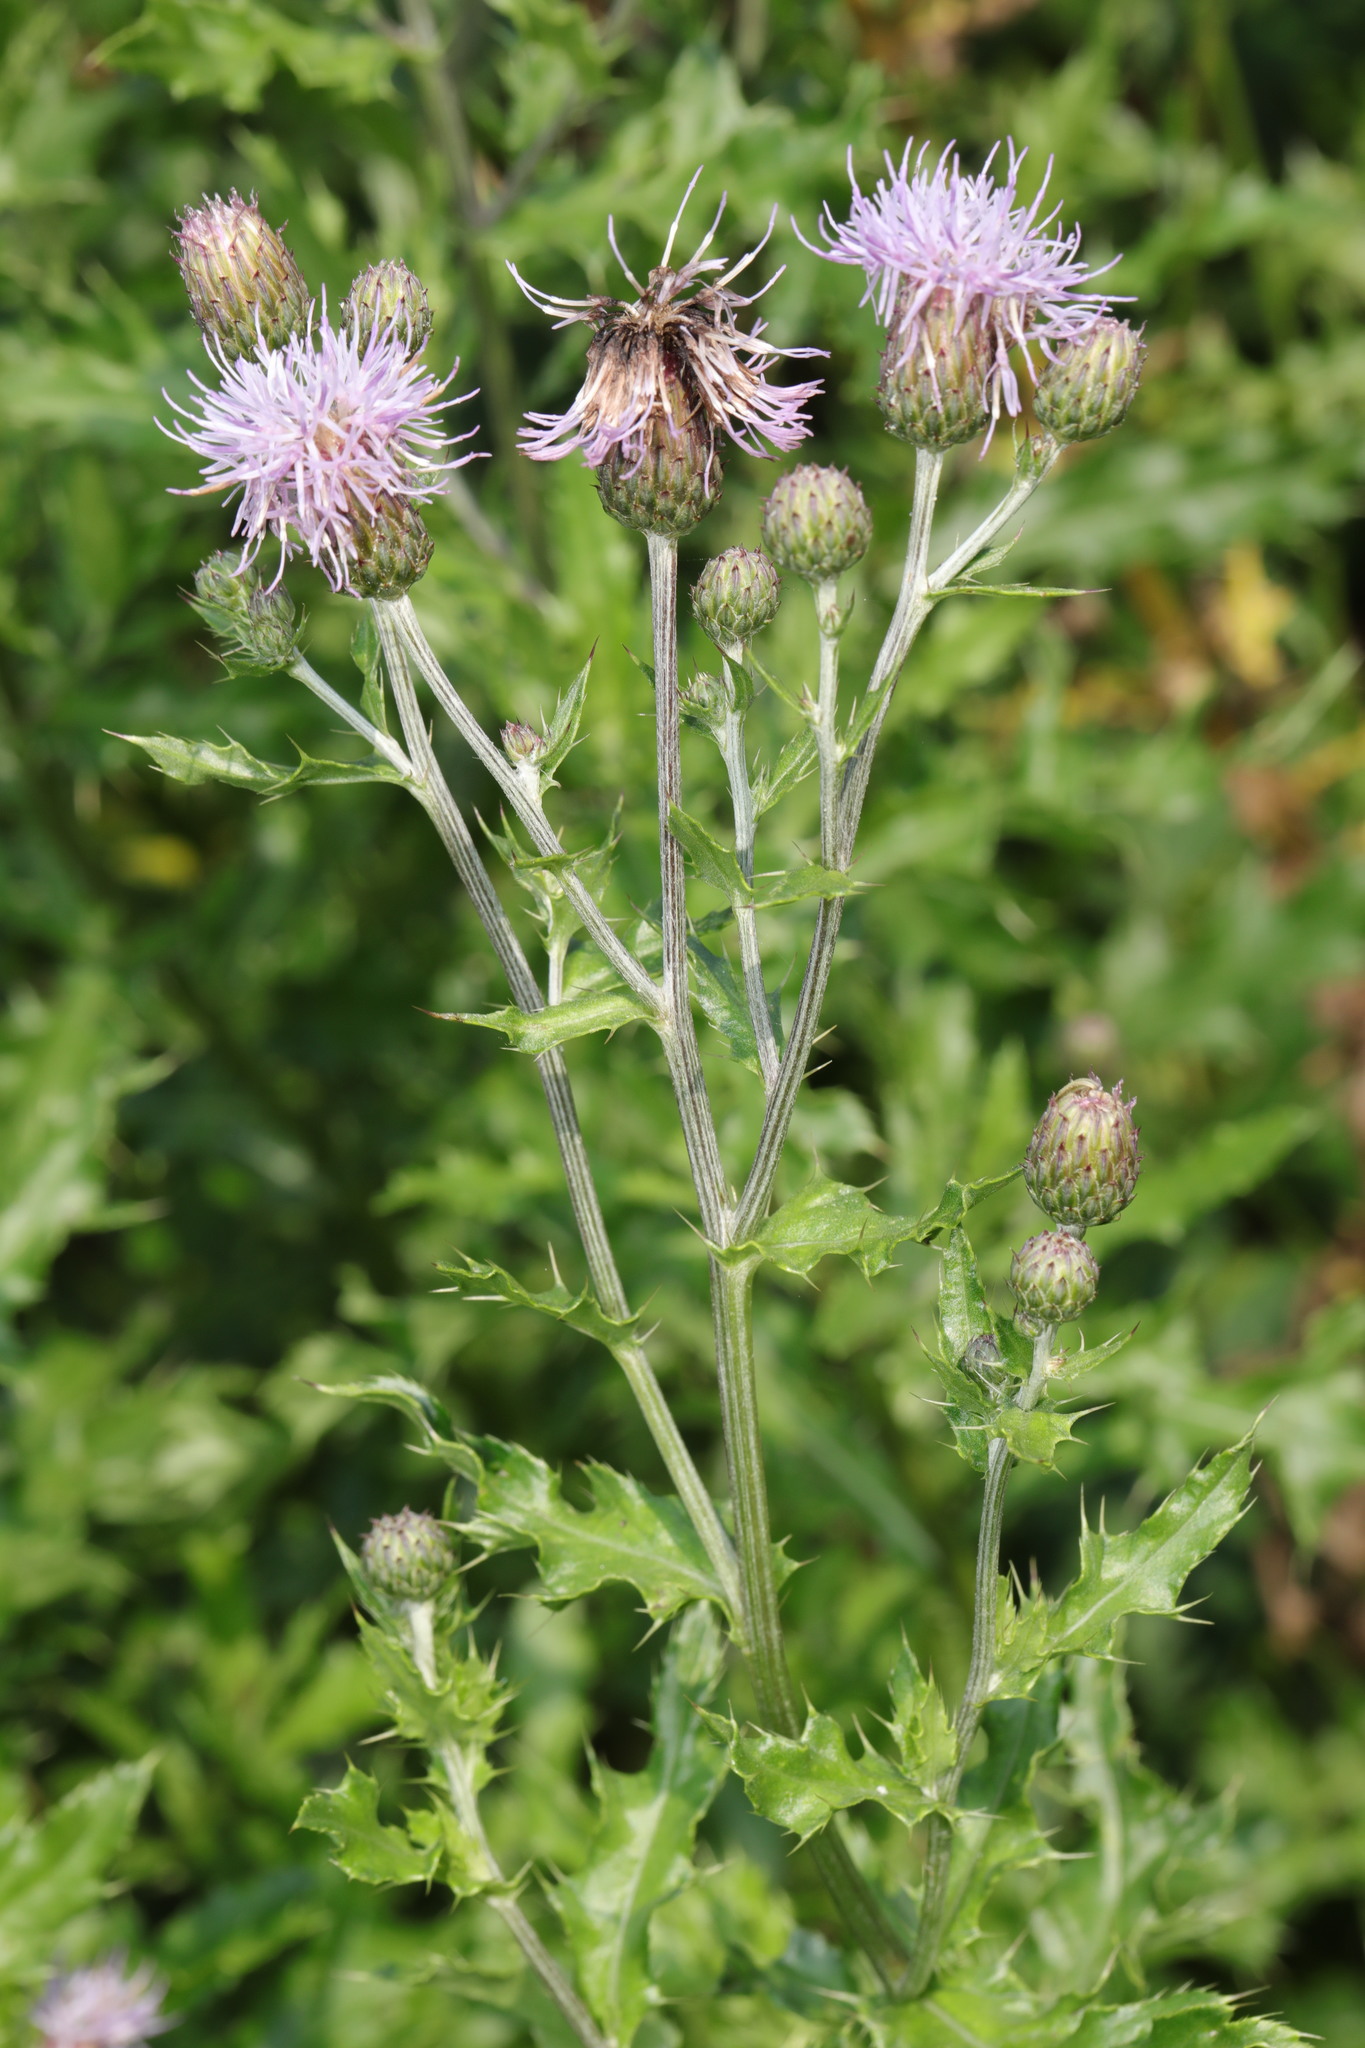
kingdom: Plantae
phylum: Tracheophyta
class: Magnoliopsida
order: Asterales
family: Asteraceae
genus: Cirsium
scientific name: Cirsium arvense
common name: Creeping thistle
